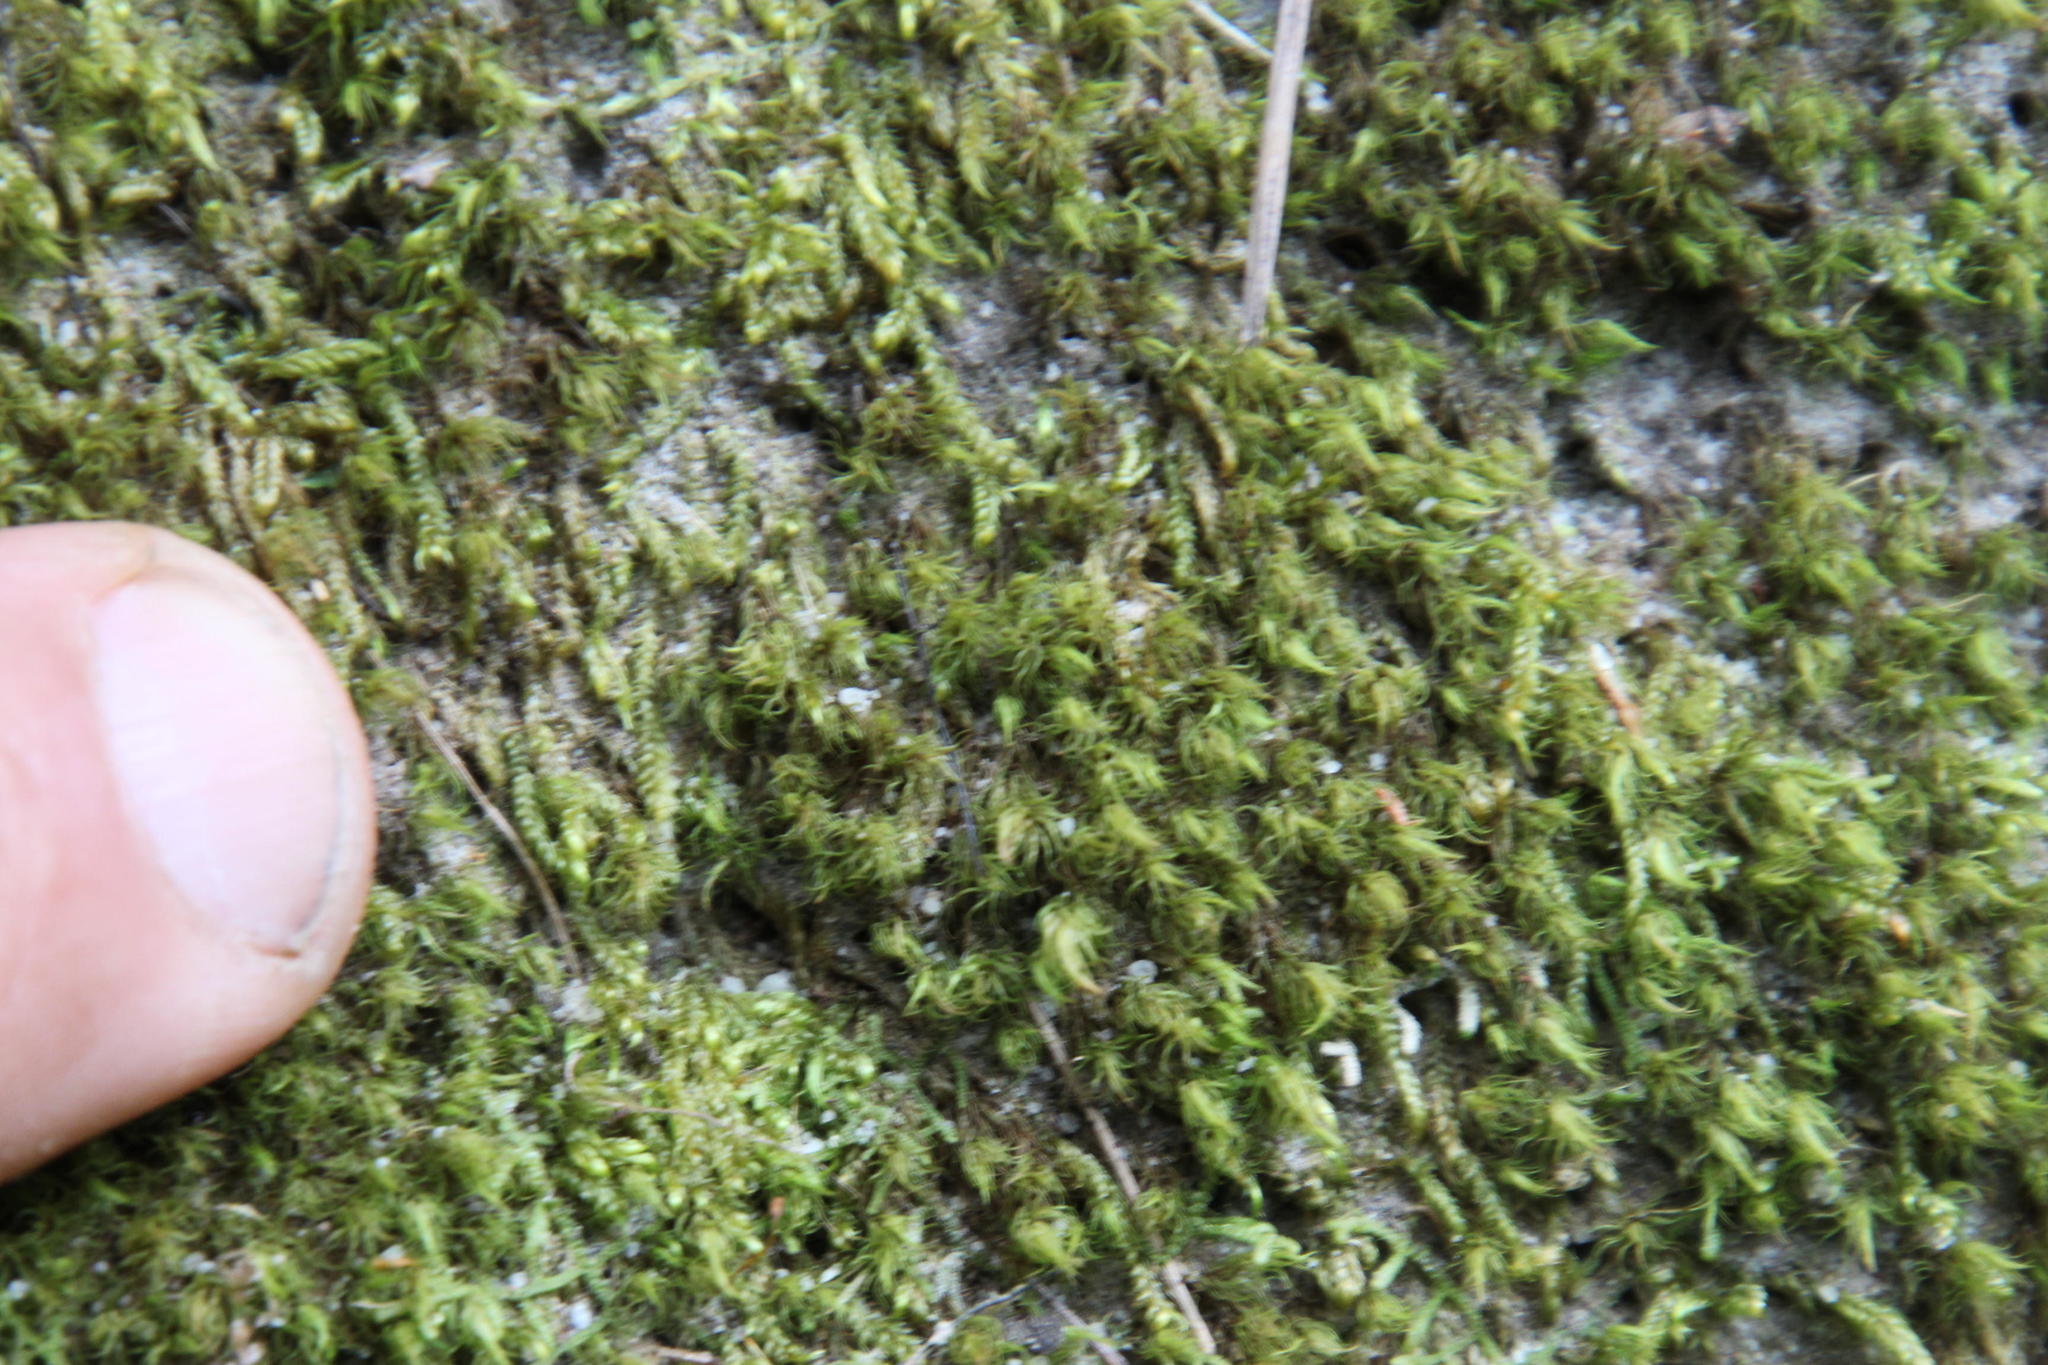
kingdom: Plantae
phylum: Bryophyta
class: Bryopsida
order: Dicranales
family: Dicranaceae
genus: Leucoloma
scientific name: Leucoloma sprengelianum
